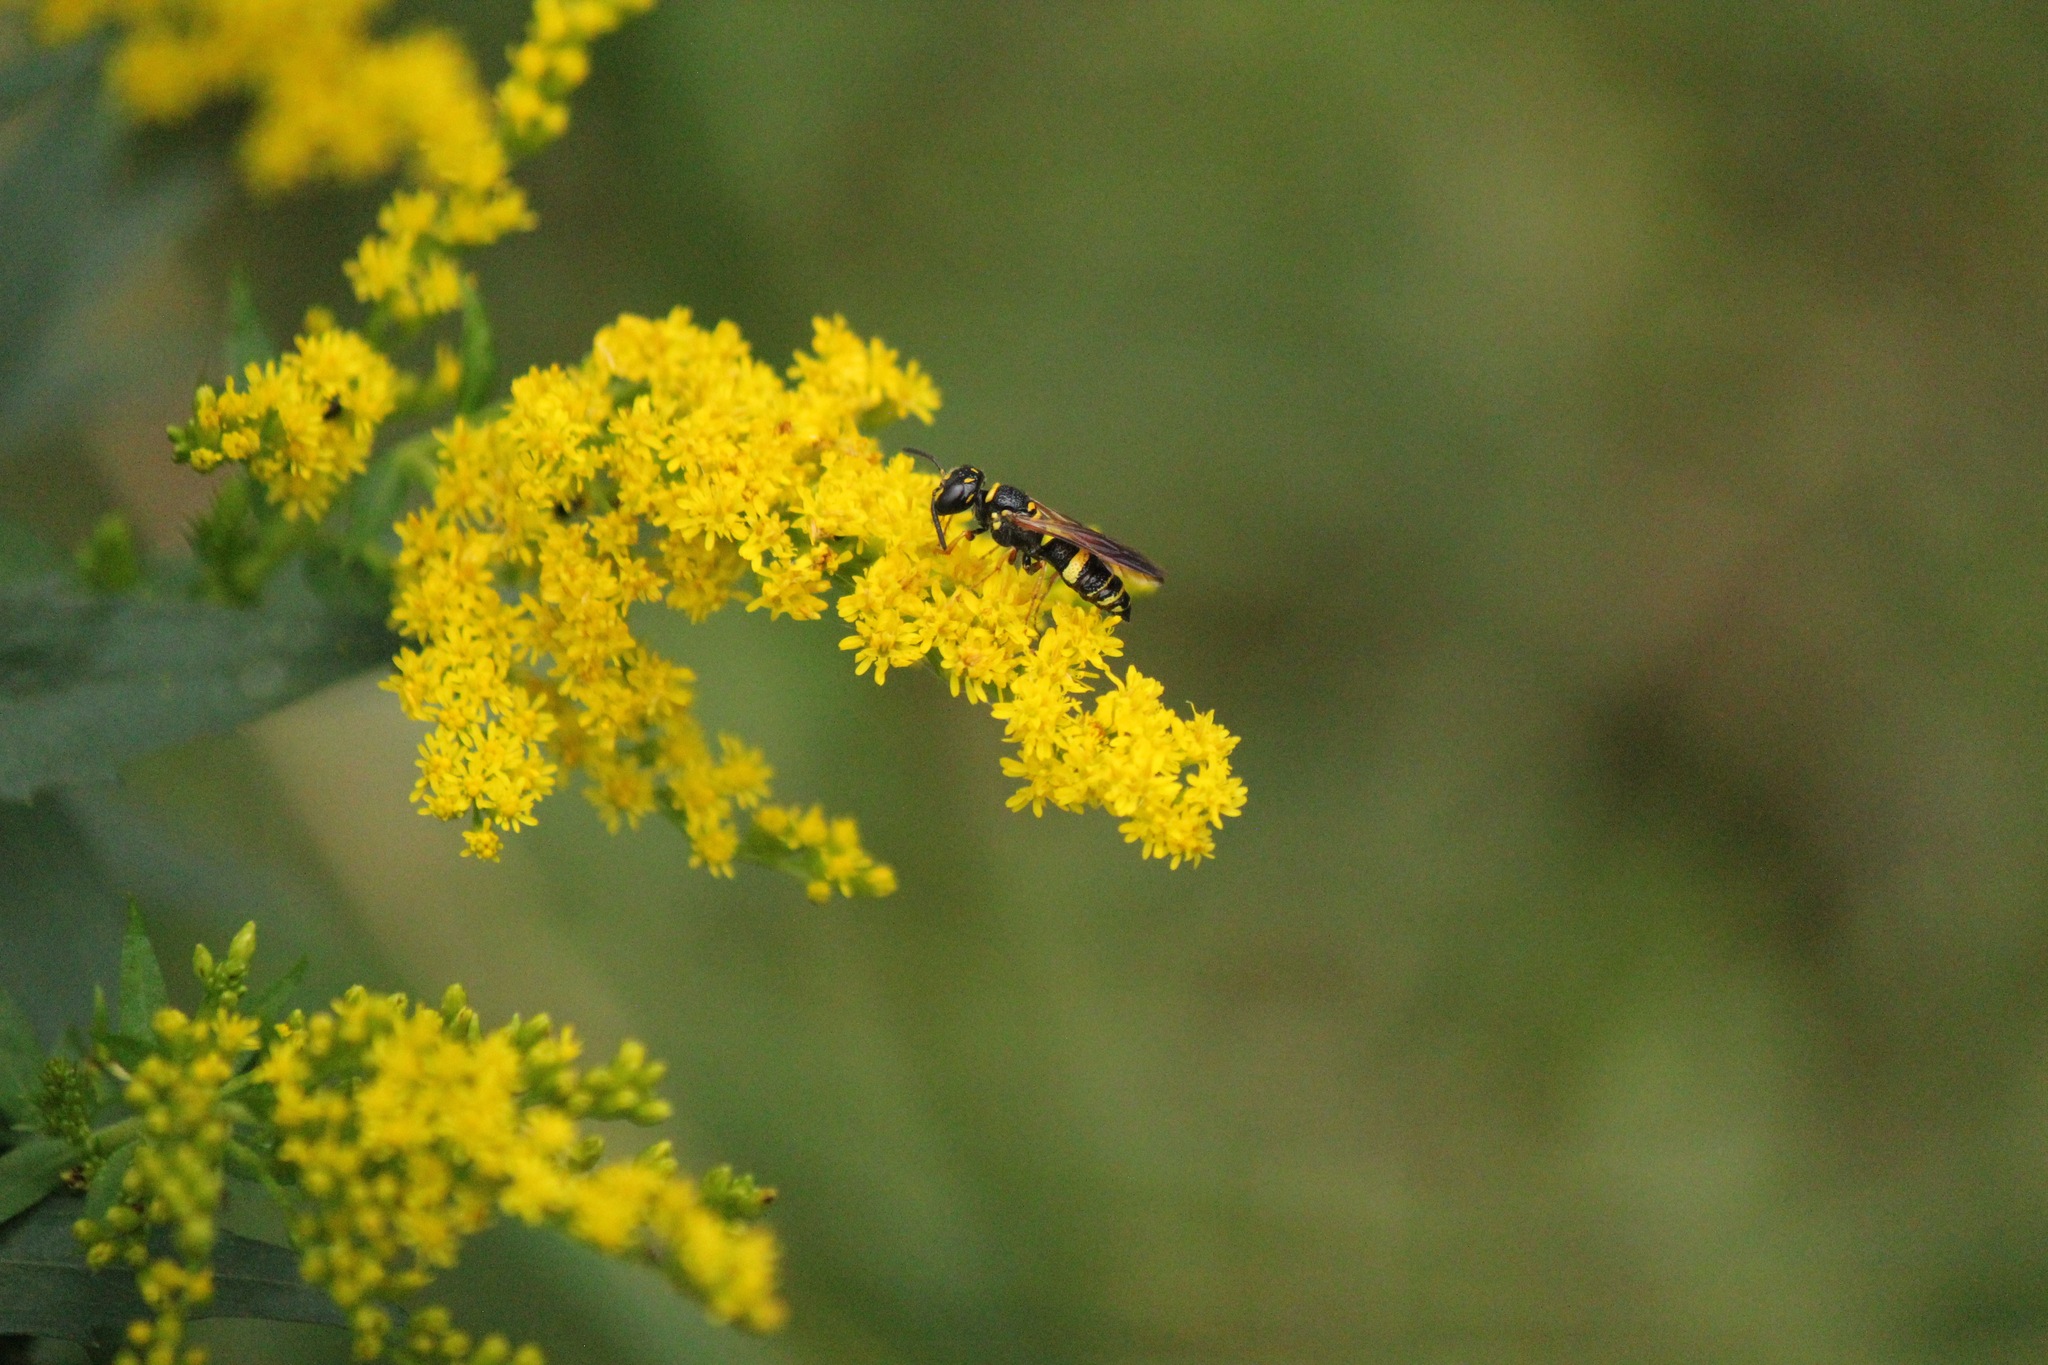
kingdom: Animalia
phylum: Arthropoda
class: Insecta
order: Hymenoptera
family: Crabronidae
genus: Philanthus
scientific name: Philanthus gibbosus
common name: Humped beewolf
